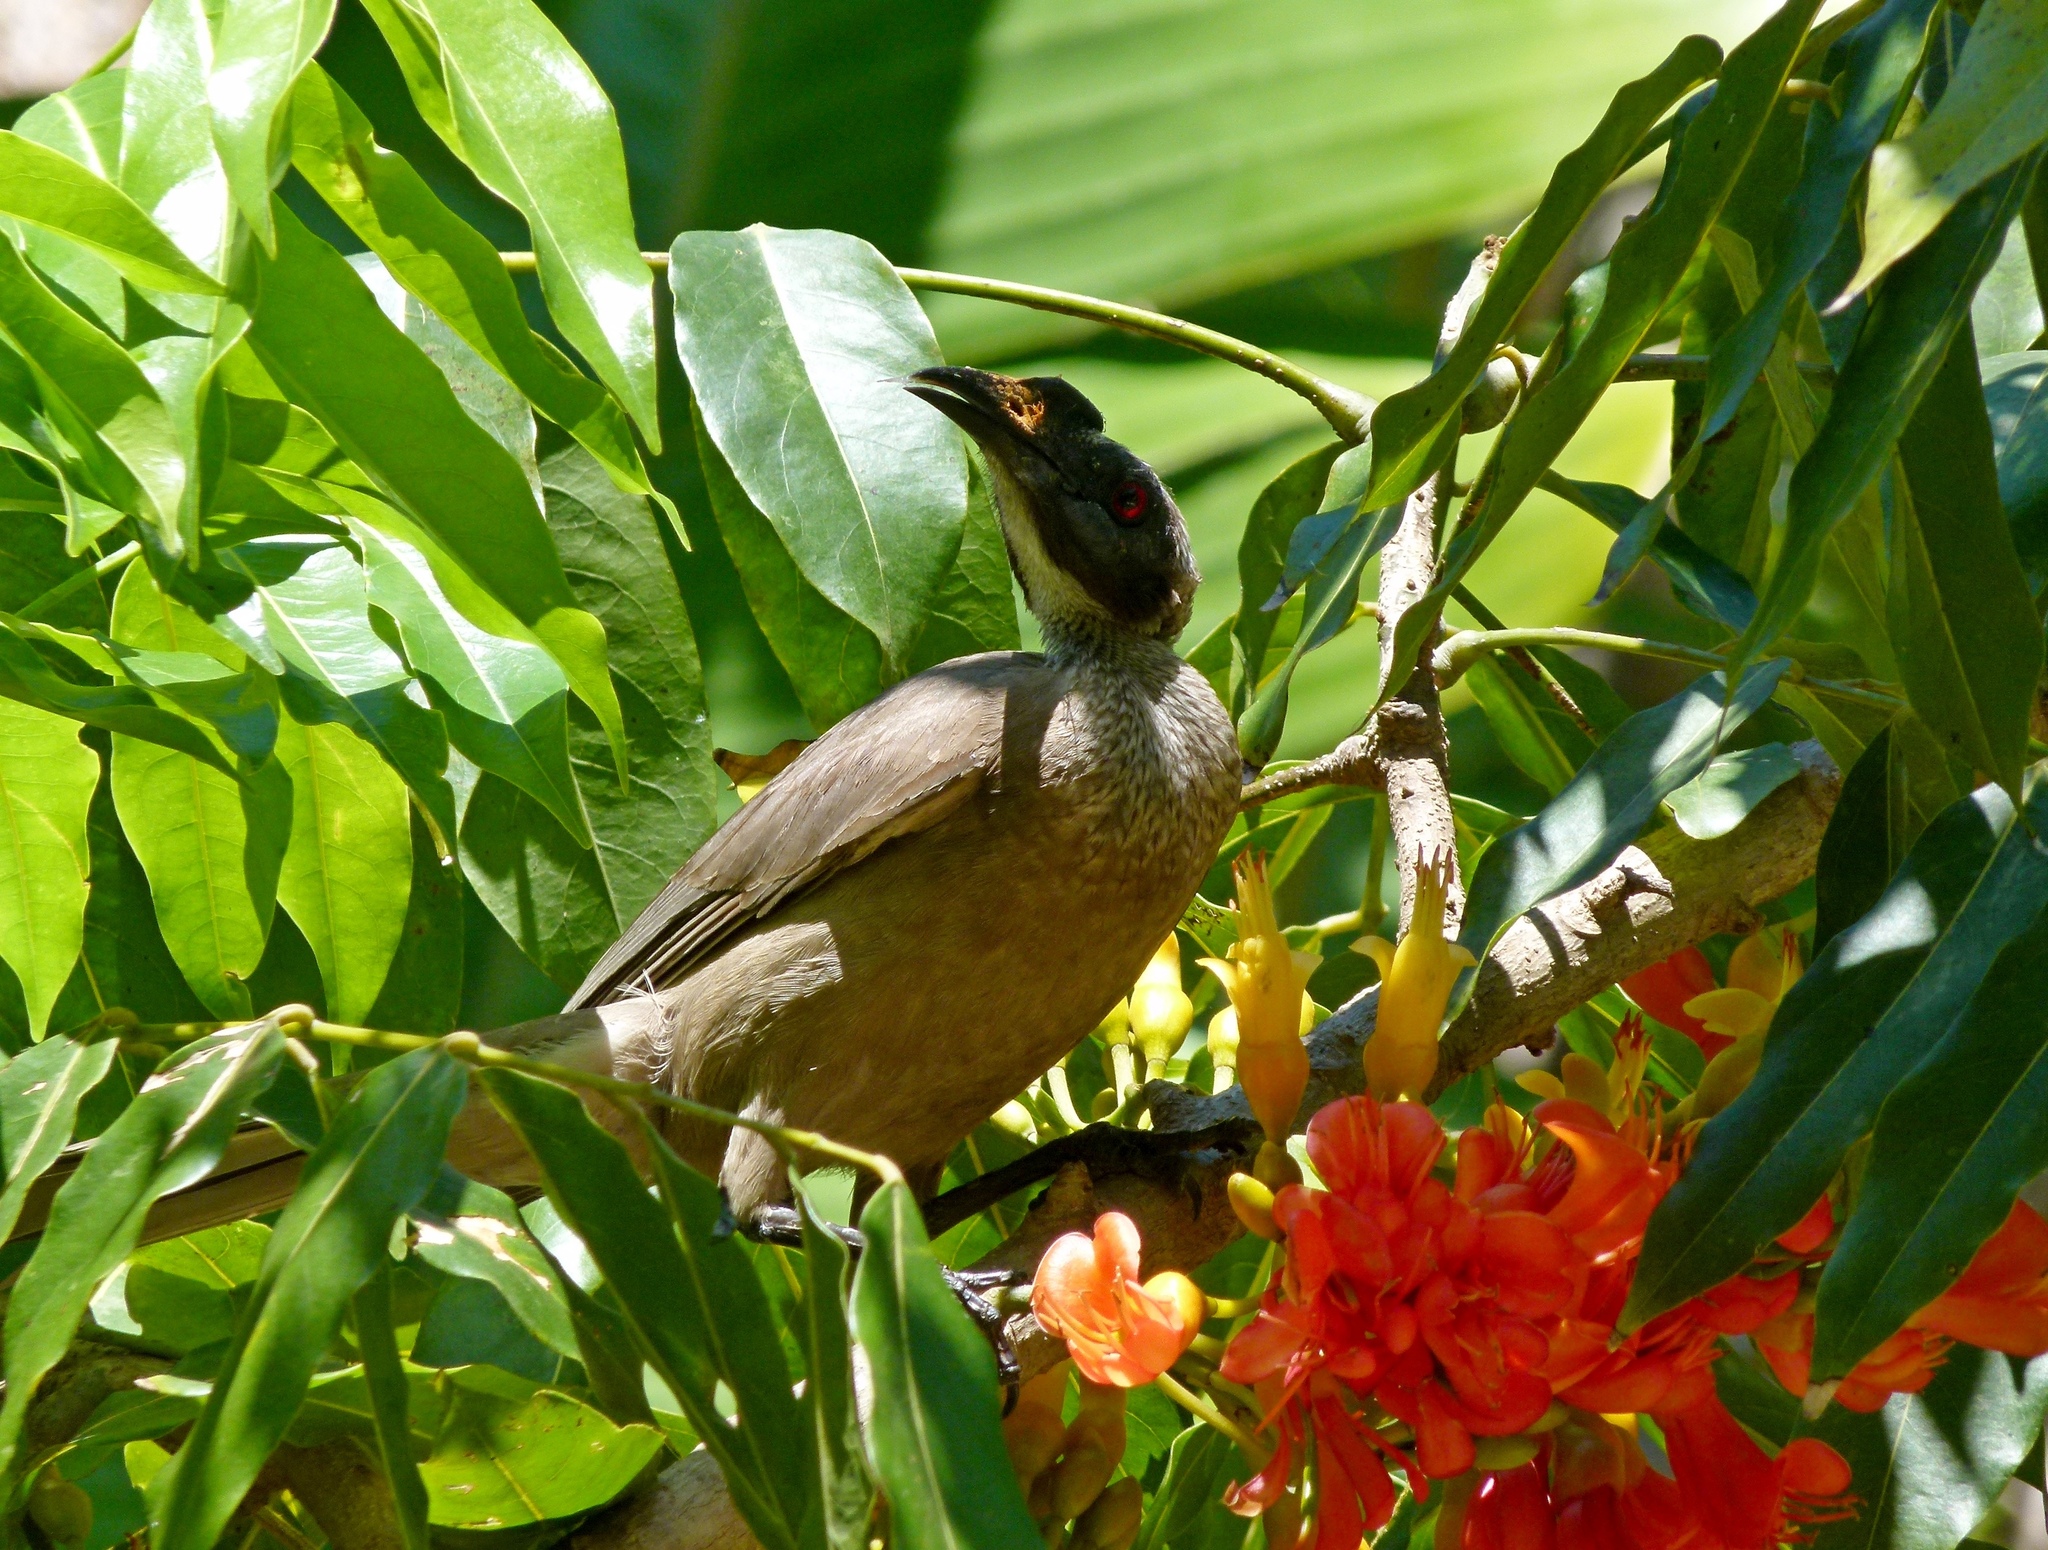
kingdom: Animalia
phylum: Chordata
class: Aves
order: Passeriformes
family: Meliphagidae
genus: Philemon
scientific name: Philemon buceroides
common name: Helmeted friarbird
